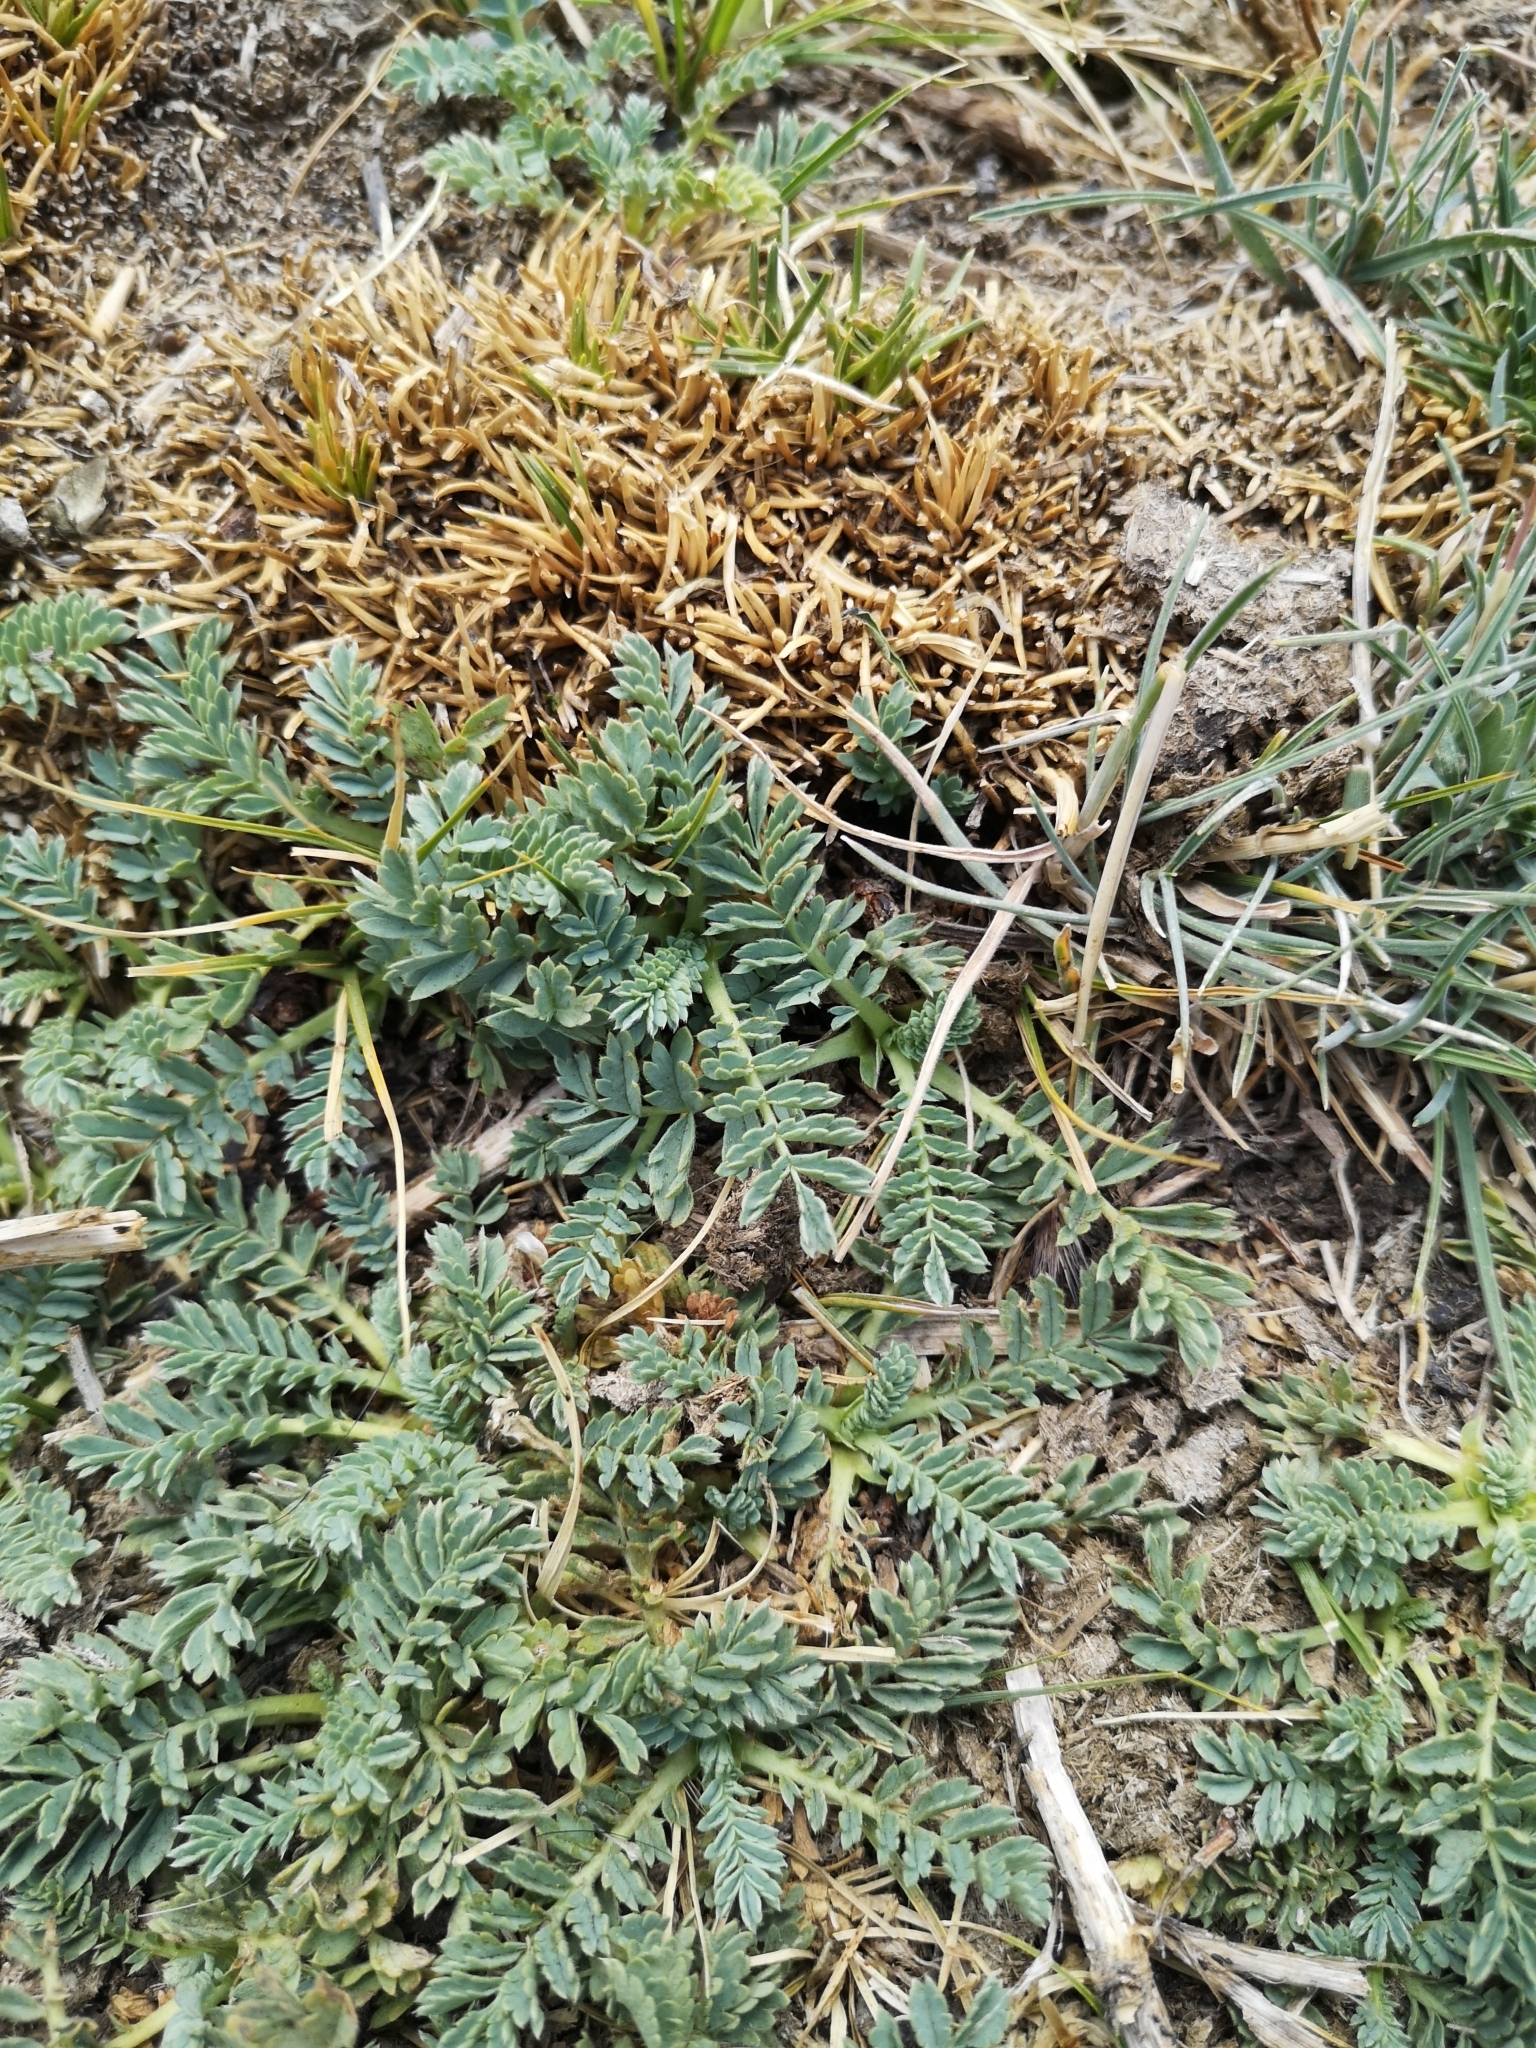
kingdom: Plantae
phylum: Tracheophyta
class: Magnoliopsida
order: Rosales
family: Rosaceae
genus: Acaena
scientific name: Acaena magellanica
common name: New zealand burr
